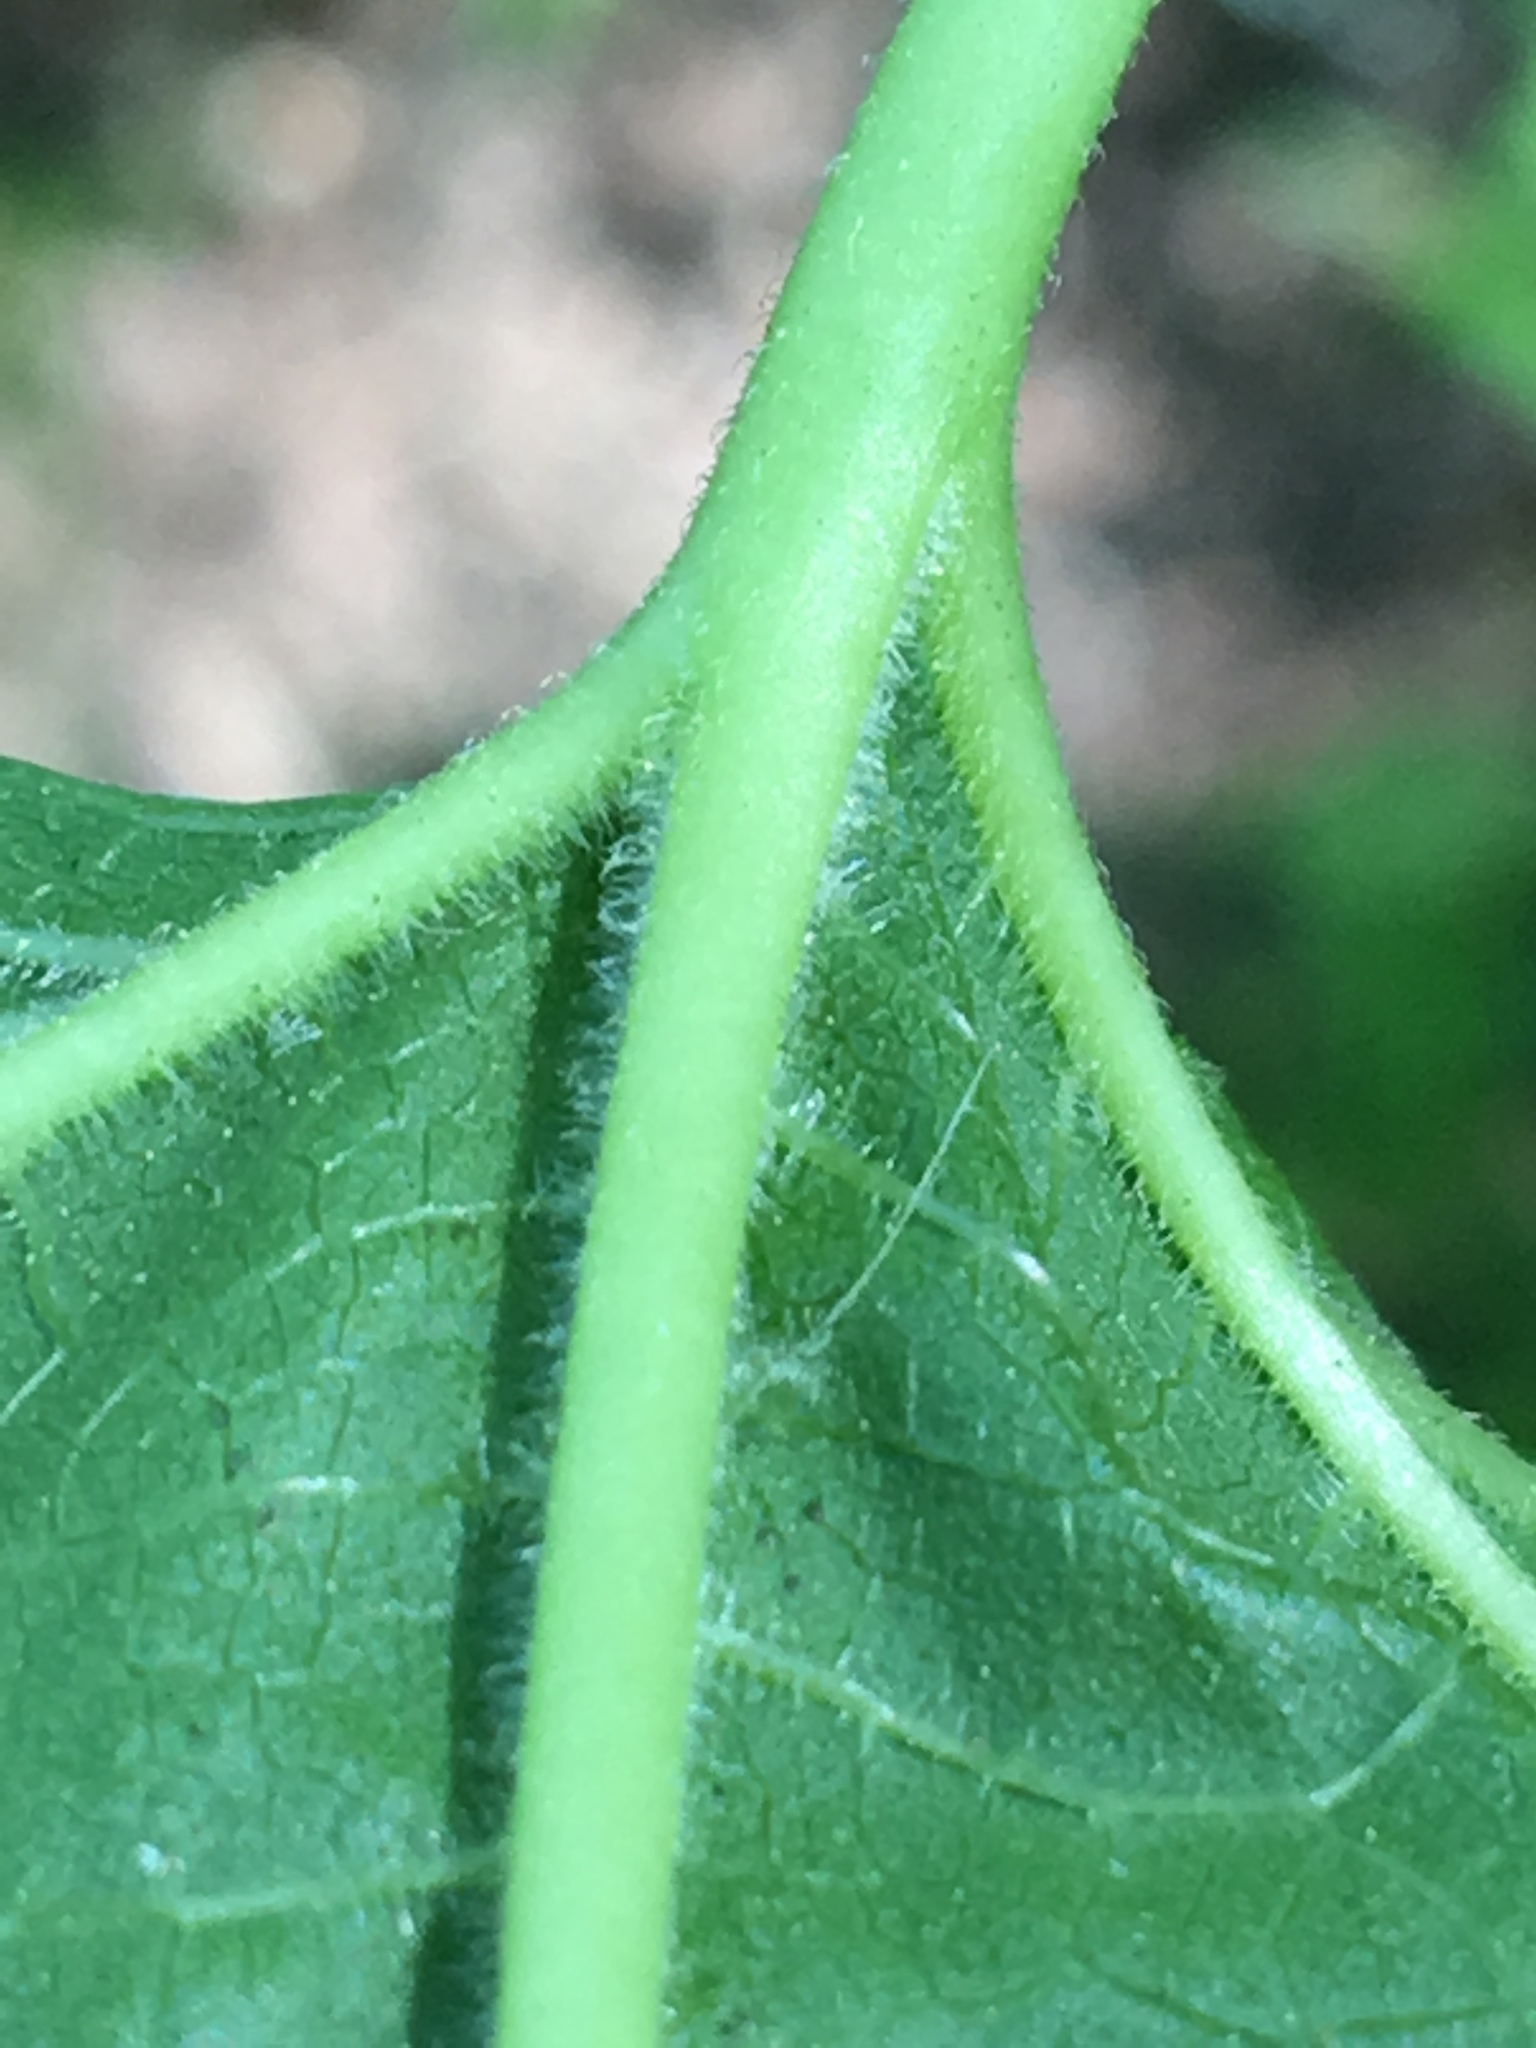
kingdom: Plantae
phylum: Tracheophyta
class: Magnoliopsida
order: Rosales
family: Moraceae
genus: Morus
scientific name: Morus alba
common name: White mulberry
